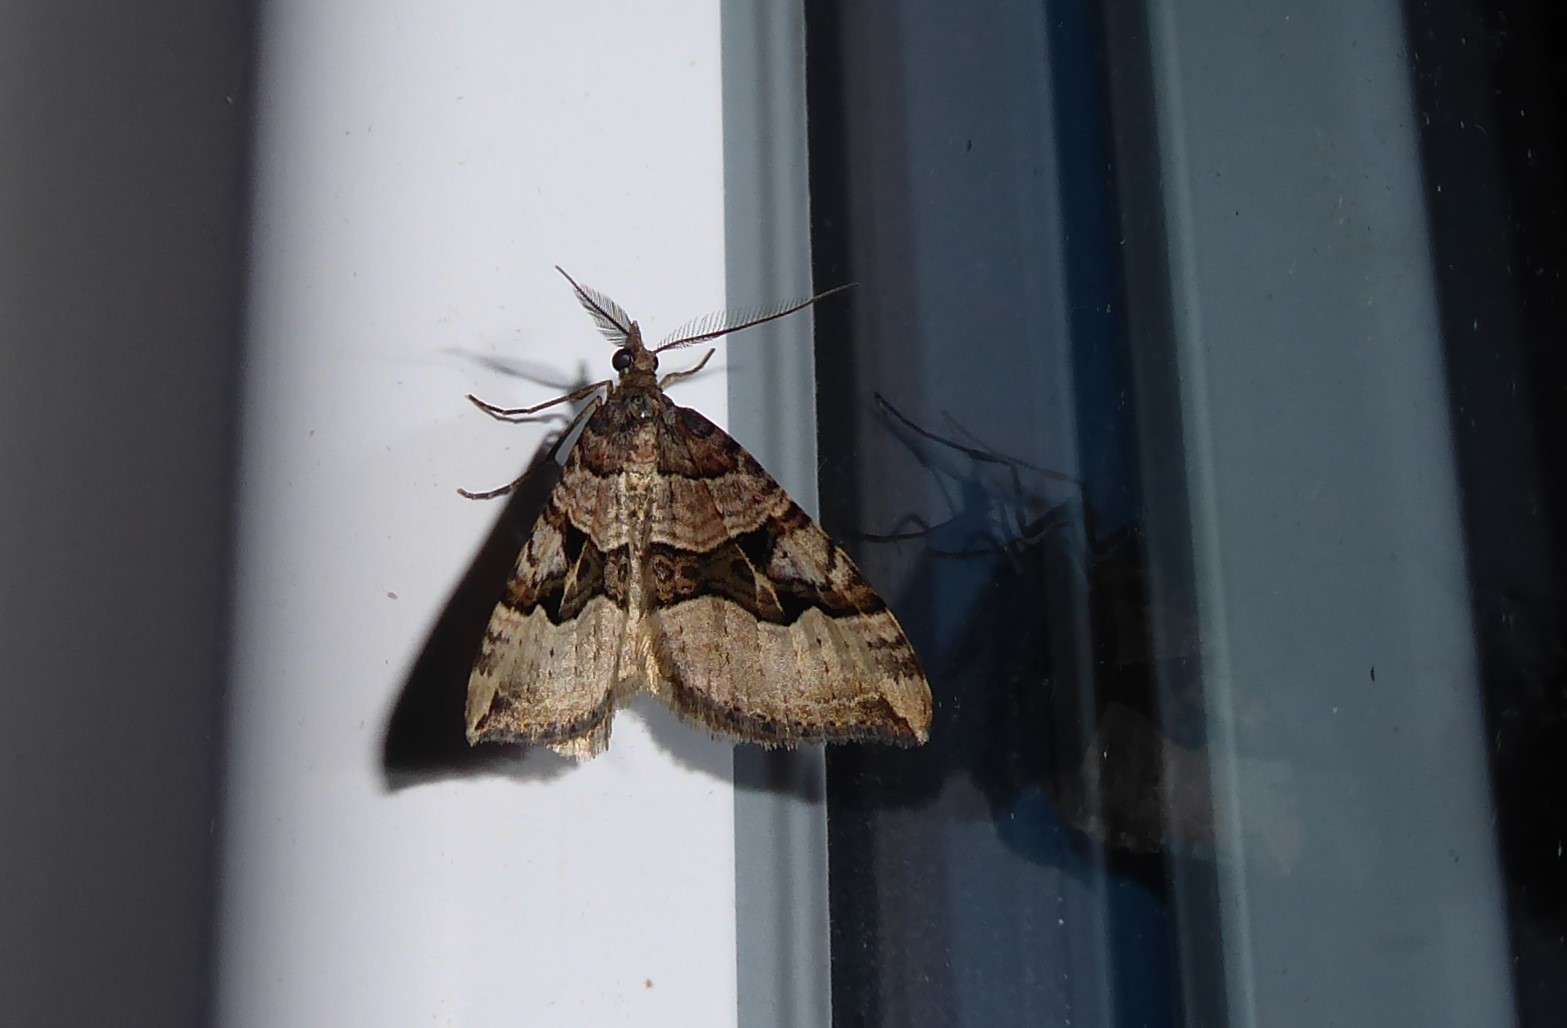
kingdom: Animalia
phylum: Arthropoda
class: Insecta
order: Lepidoptera
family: Geometridae
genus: Xanthorhoe
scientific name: Xanthorhoe semifissata
